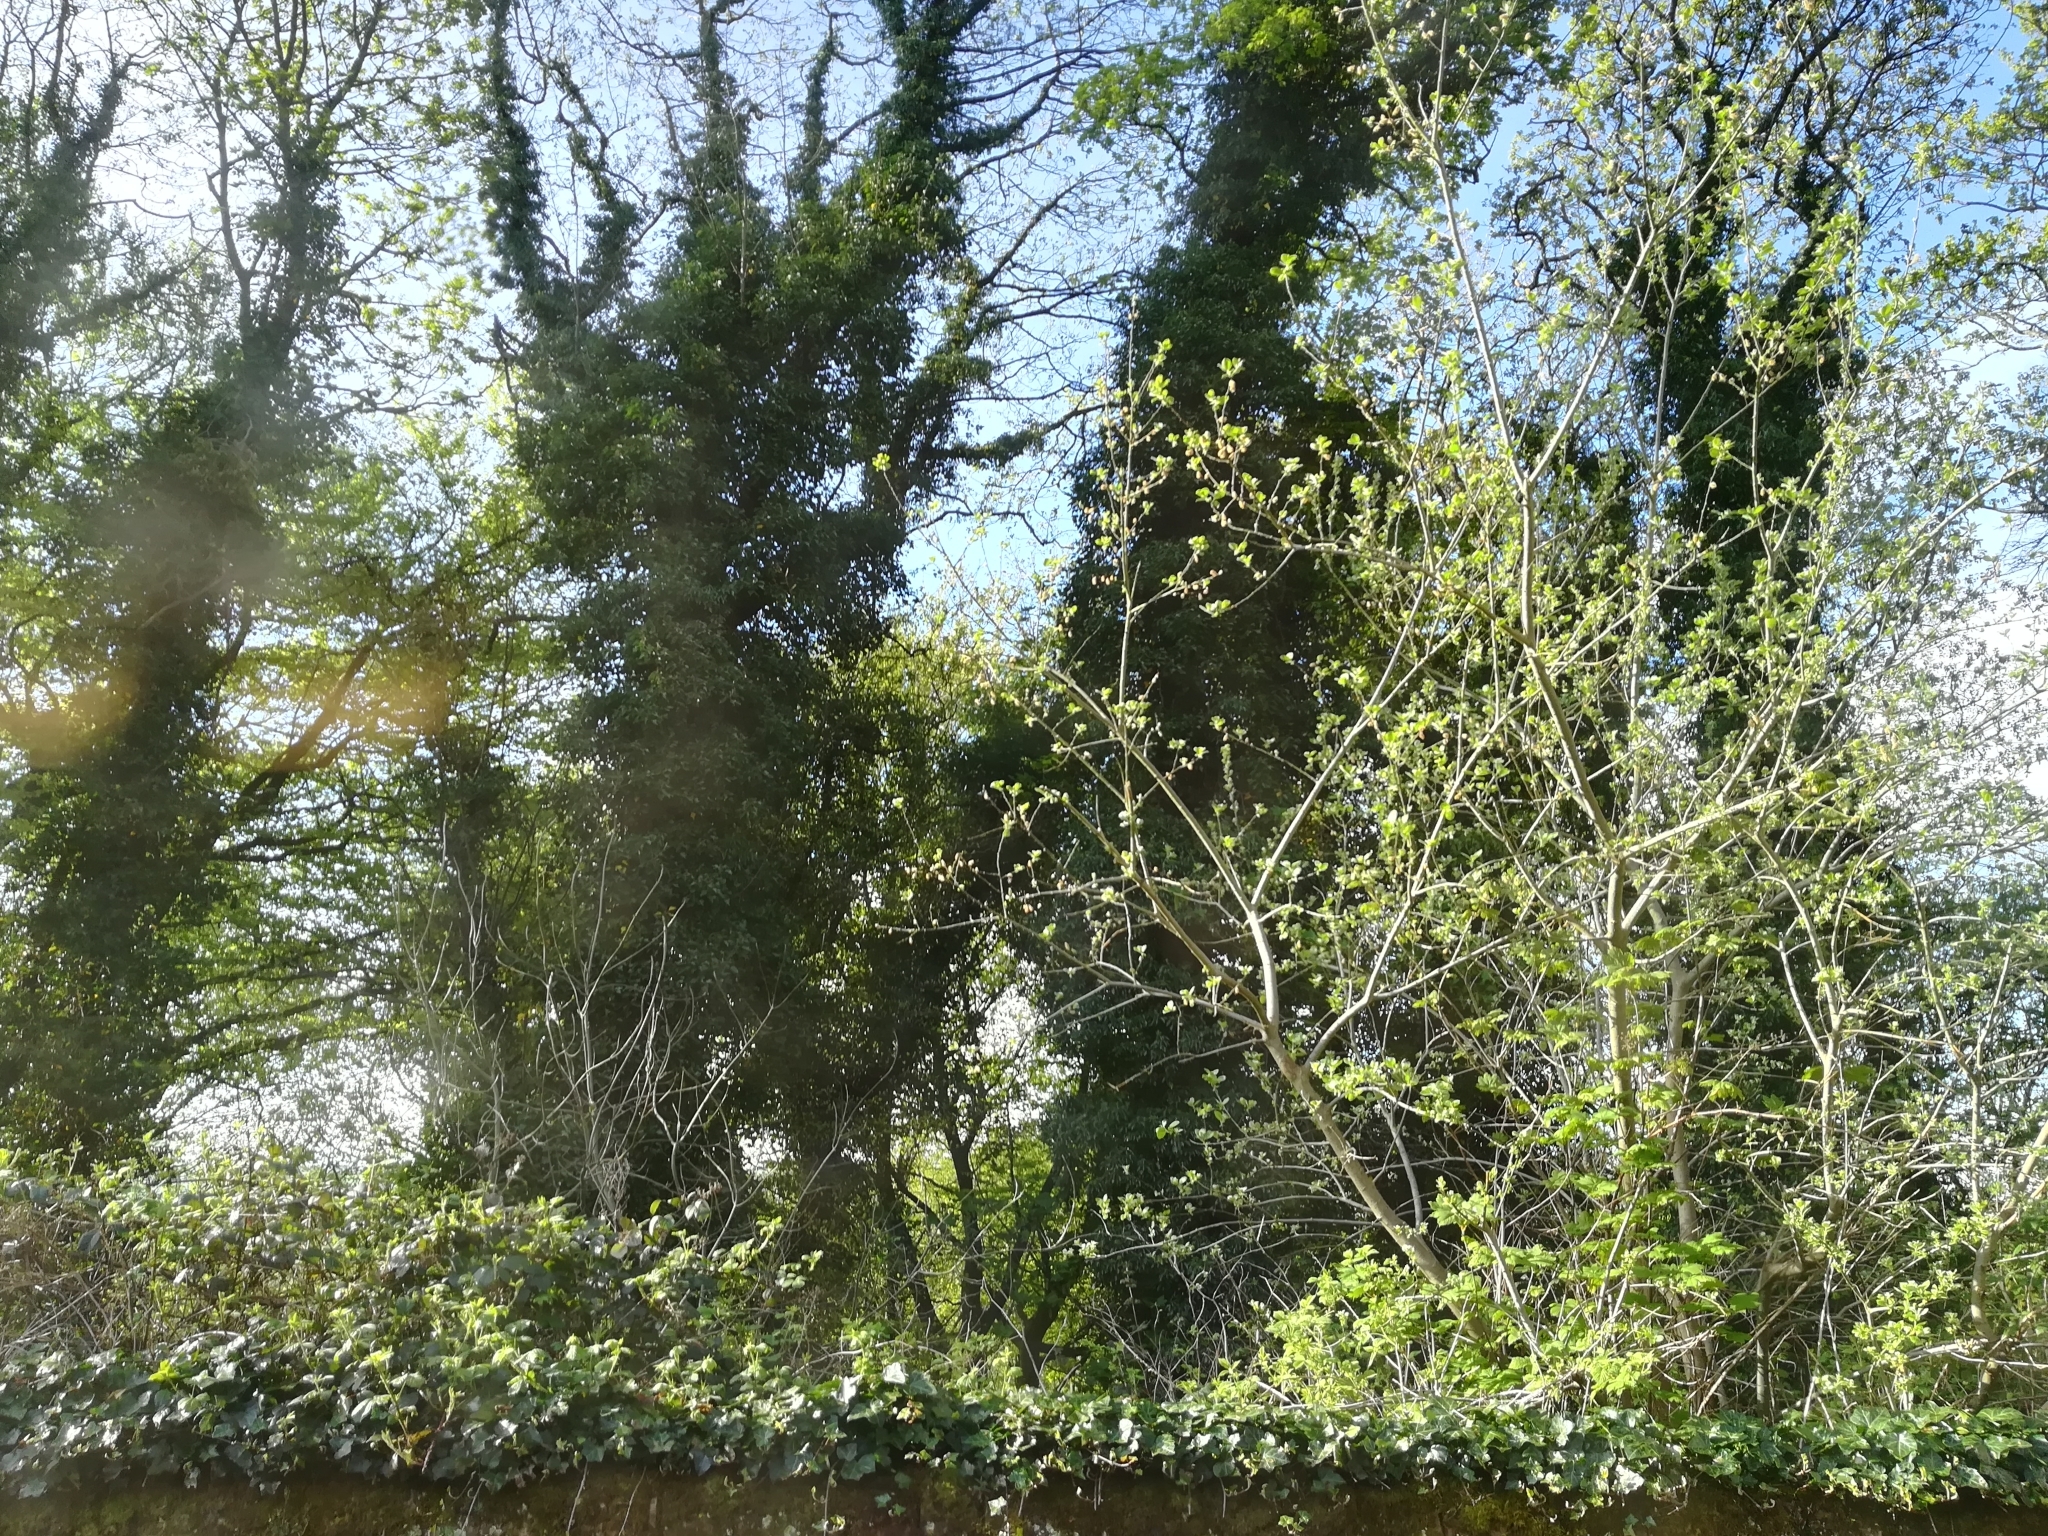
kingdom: Plantae
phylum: Tracheophyta
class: Magnoliopsida
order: Apiales
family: Araliaceae
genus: Hedera
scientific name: Hedera helix
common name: Ivy
